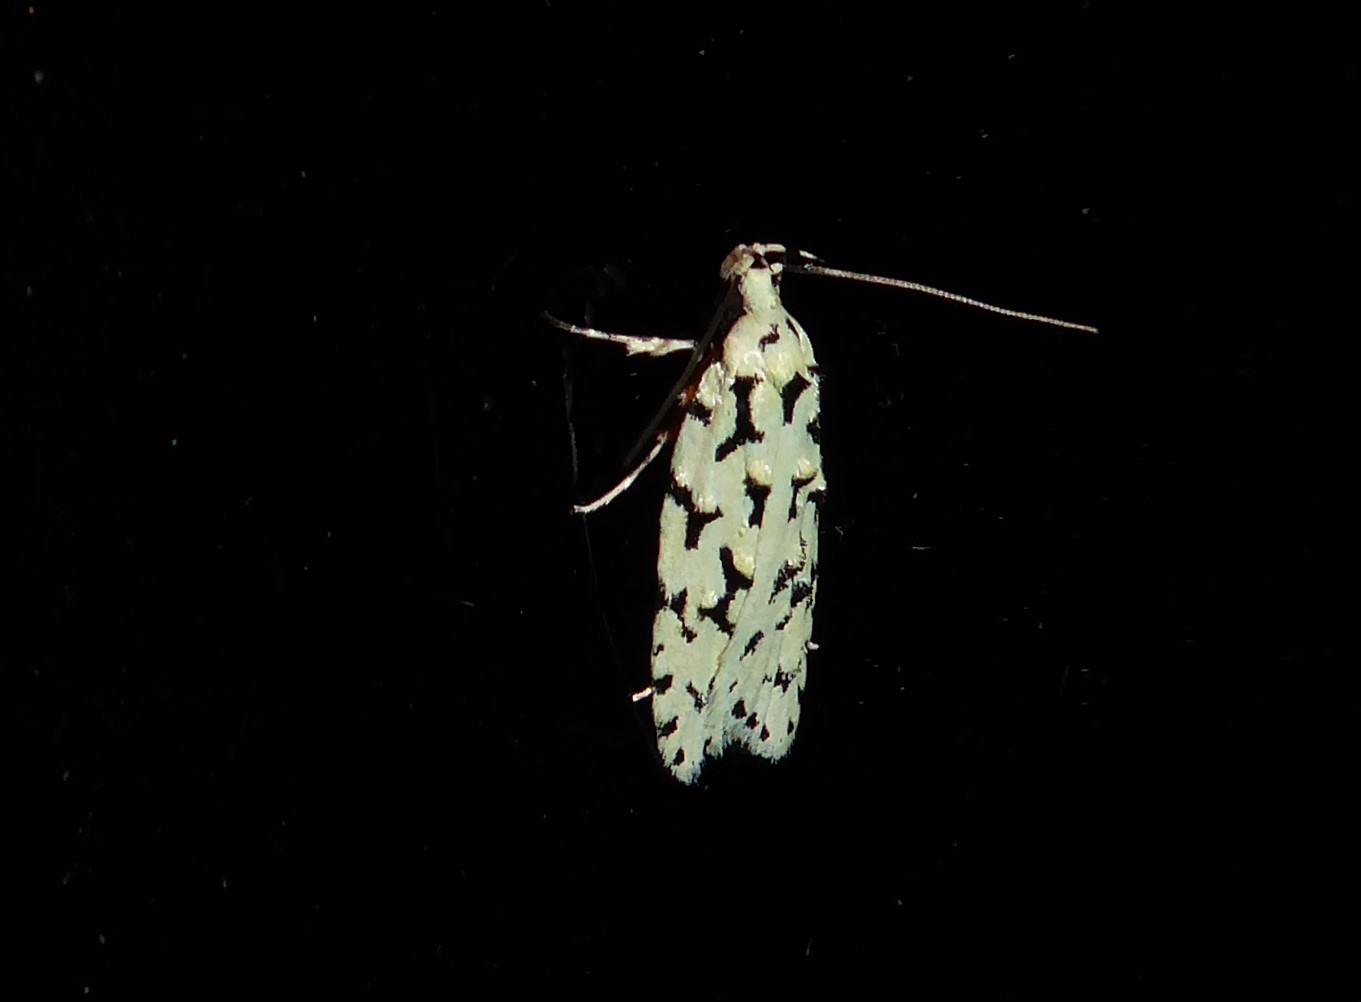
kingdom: Animalia
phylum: Arthropoda
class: Insecta
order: Lepidoptera
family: Oecophoridae
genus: Izatha
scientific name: Izatha huttoni
